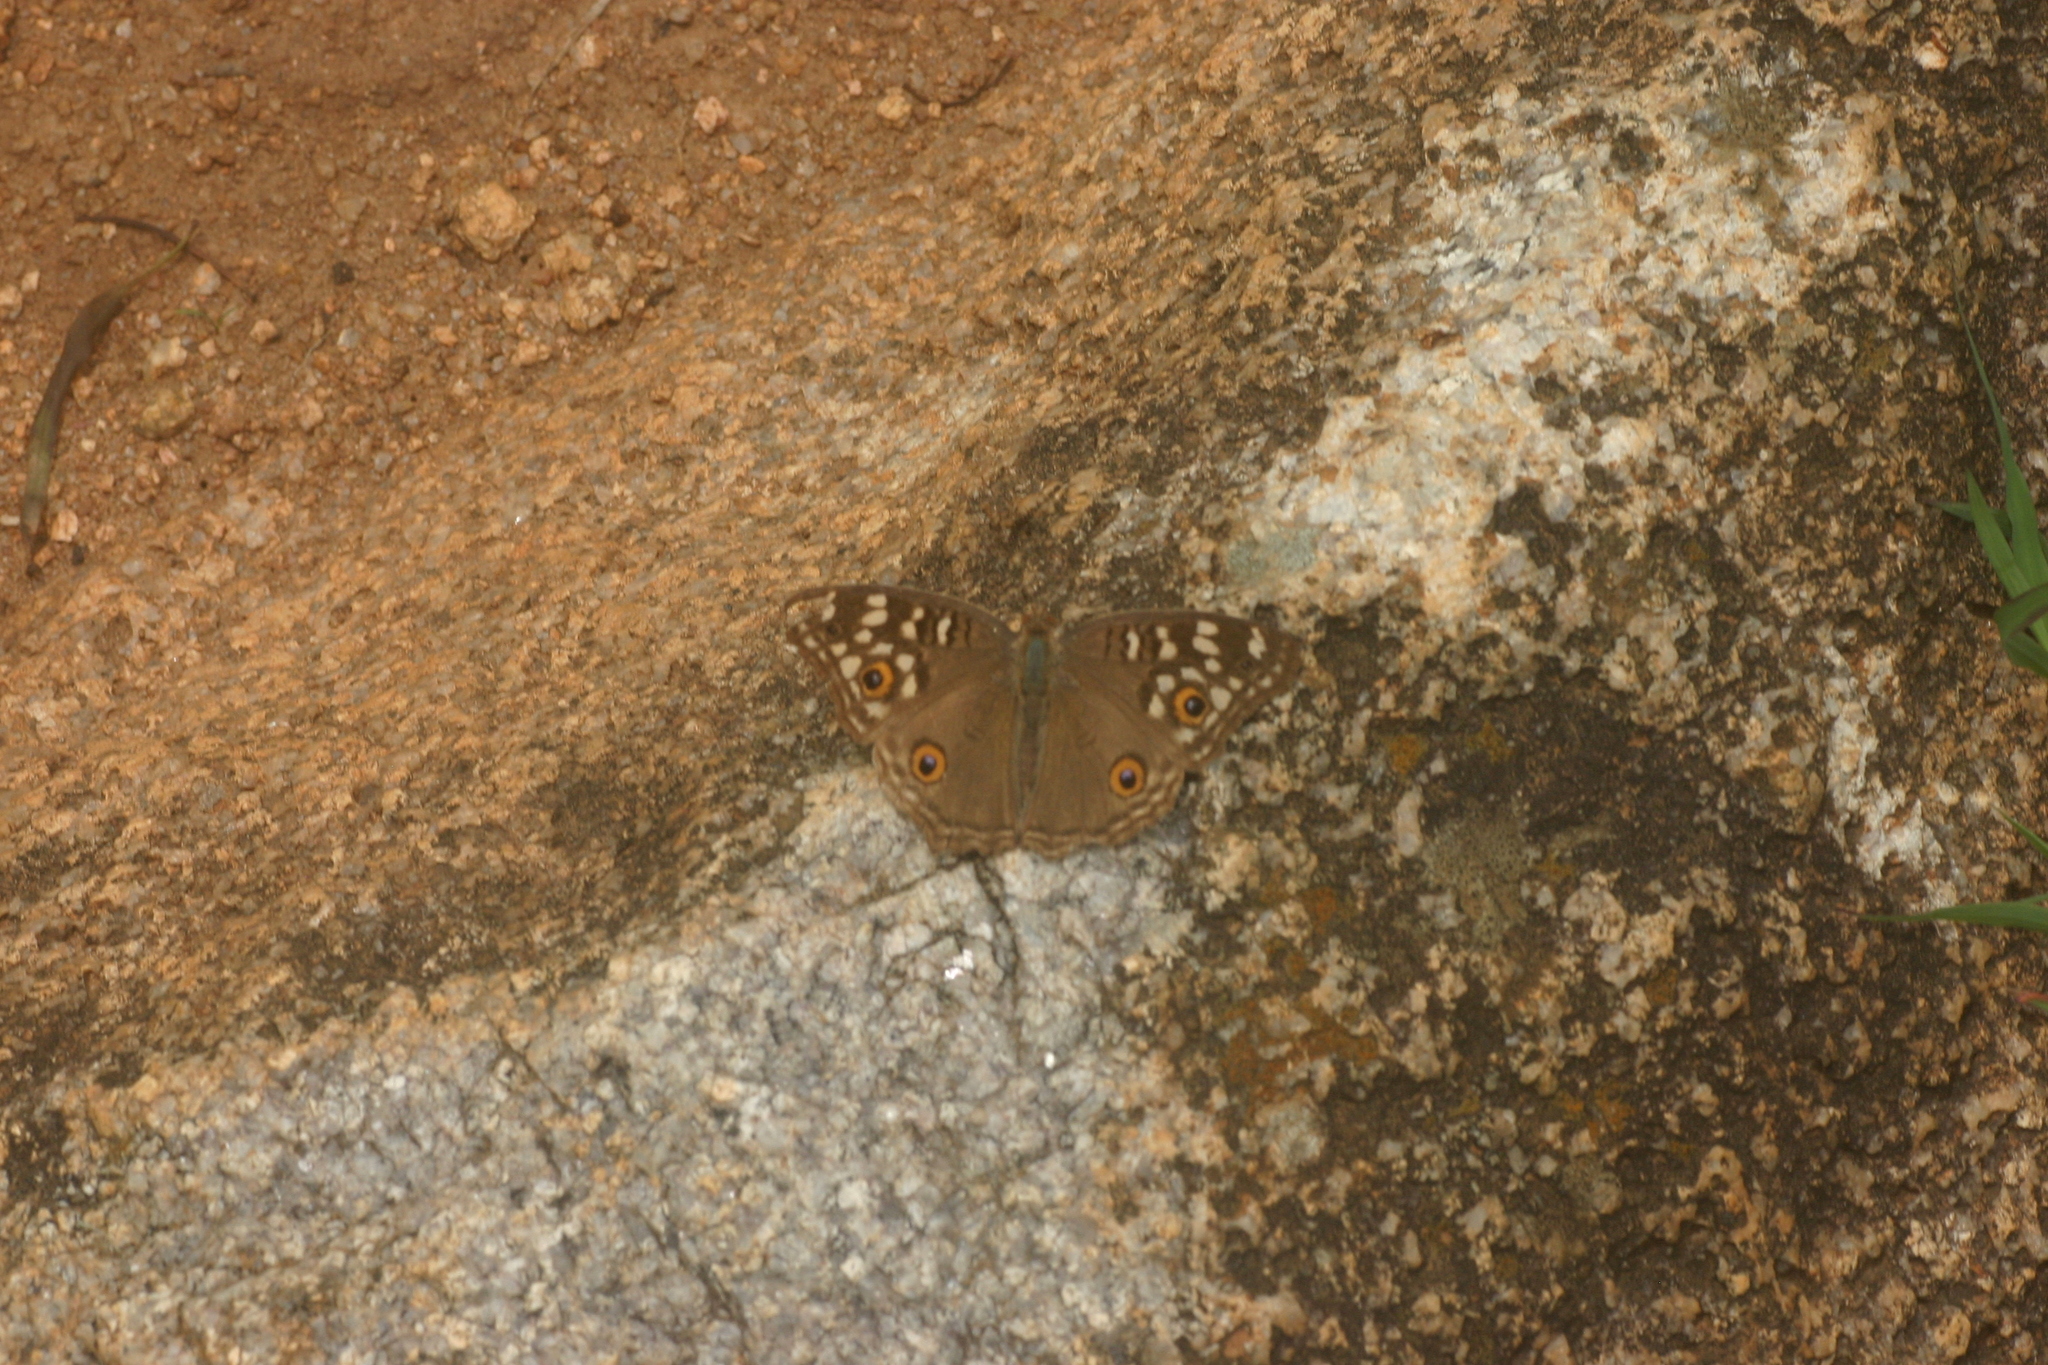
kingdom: Animalia
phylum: Arthropoda
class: Insecta
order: Lepidoptera
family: Nymphalidae
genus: Junonia
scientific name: Junonia lemonias
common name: Lemon pansy
